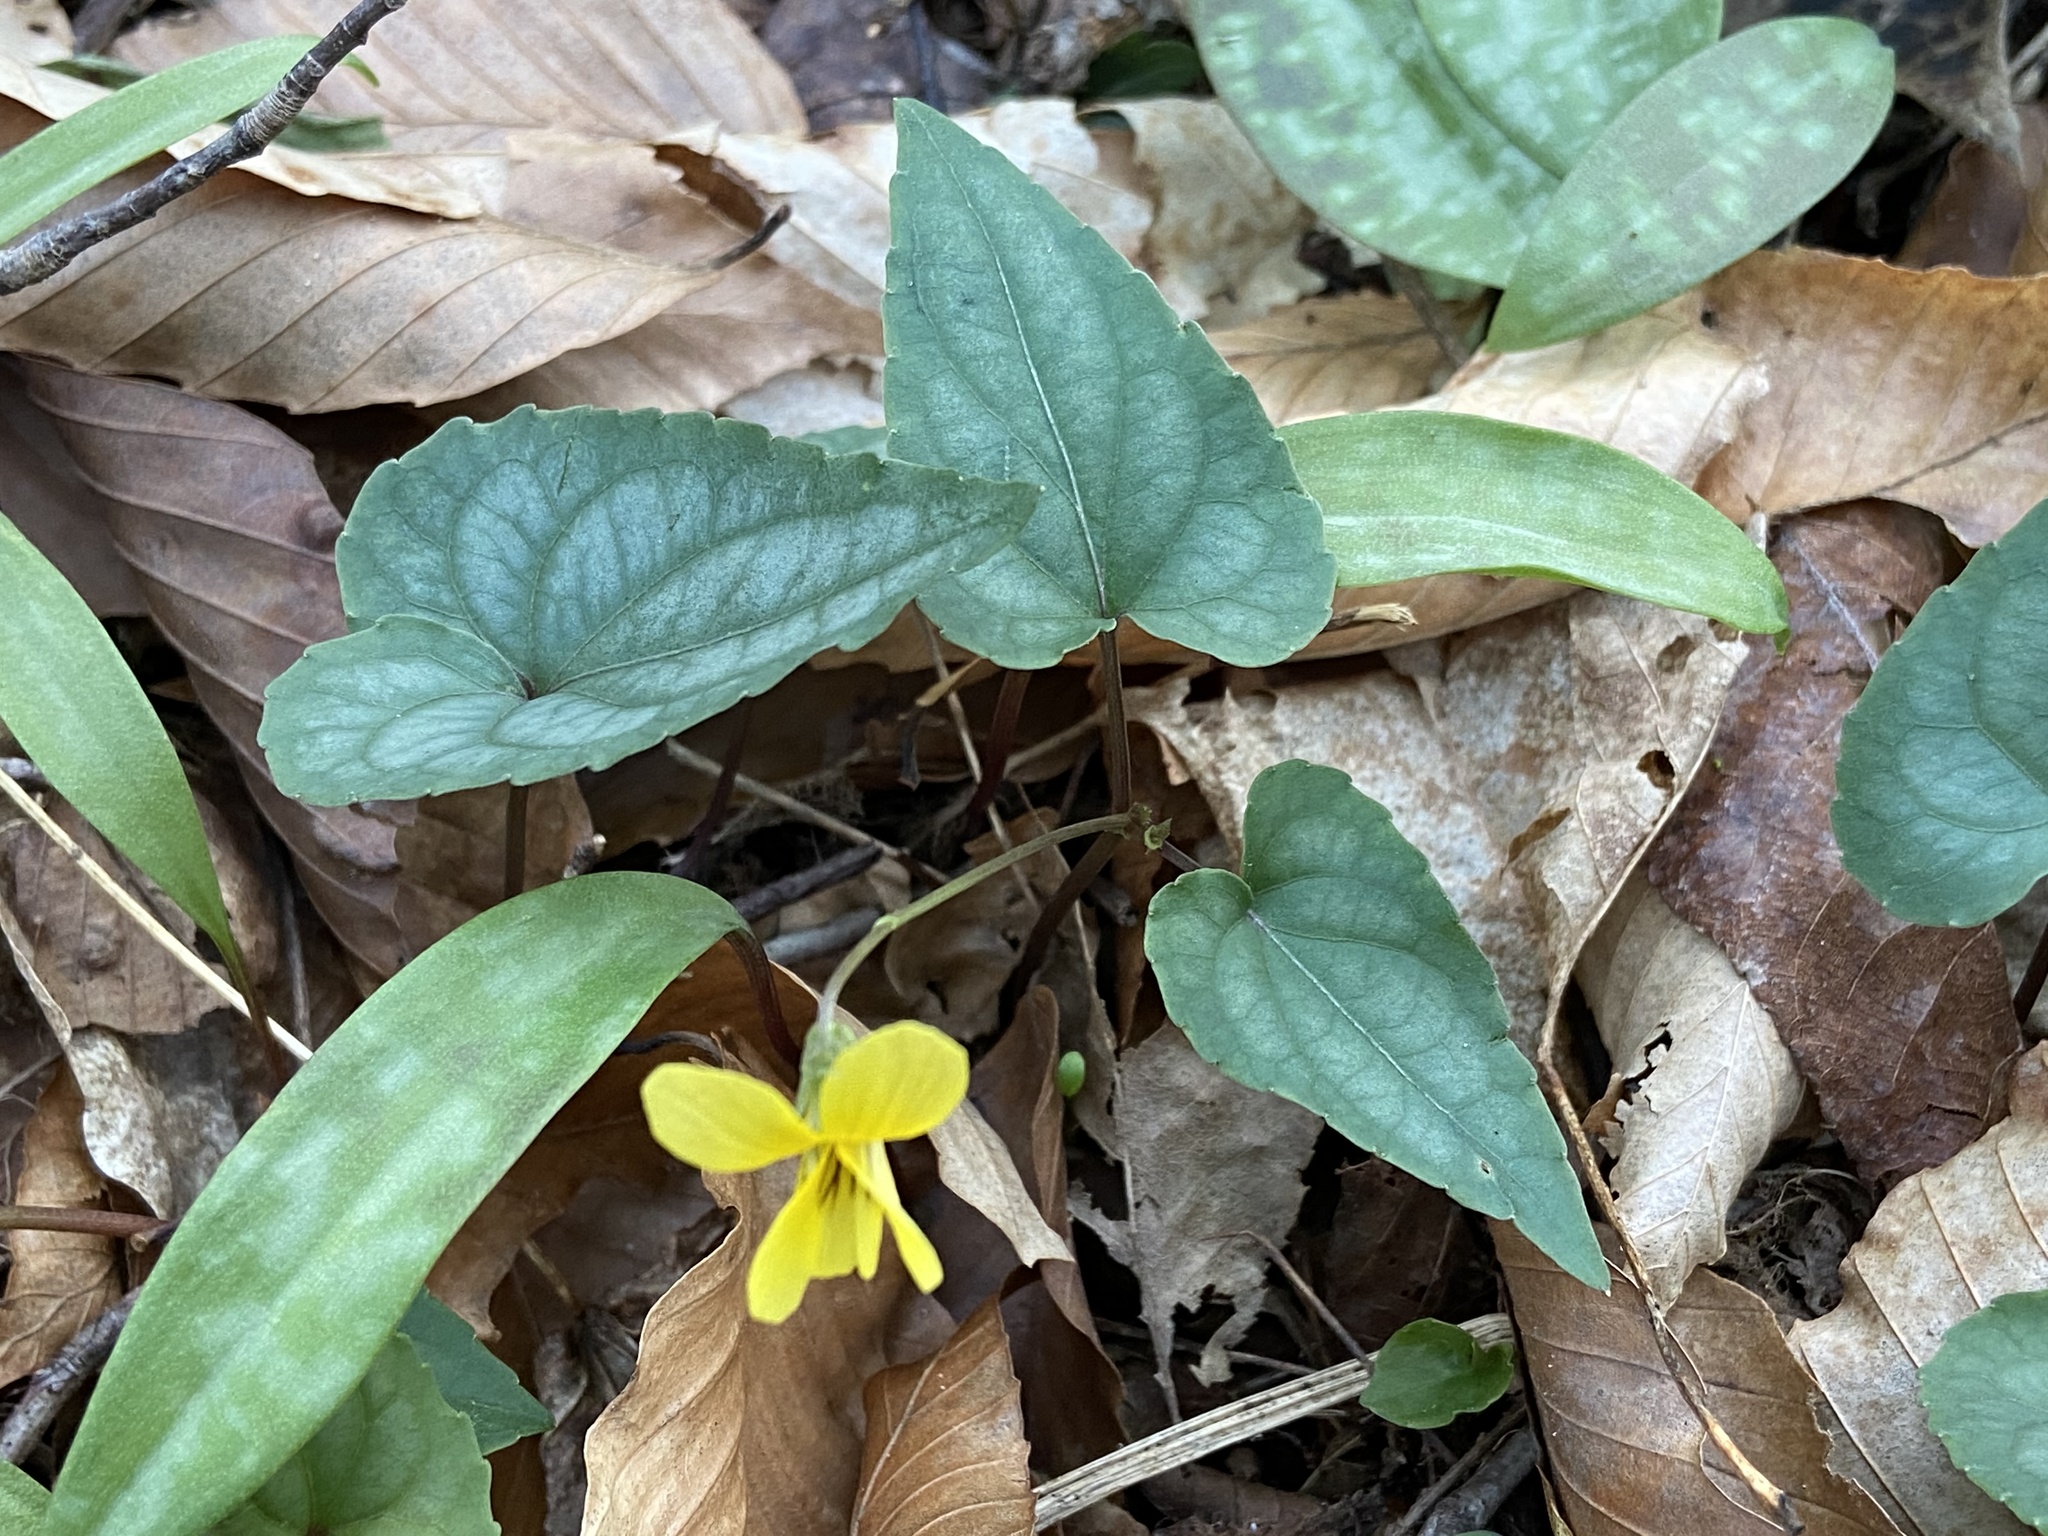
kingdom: Plantae
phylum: Tracheophyta
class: Magnoliopsida
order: Malpighiales
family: Violaceae
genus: Viola
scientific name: Viola hastata
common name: Spear-leaf violet
